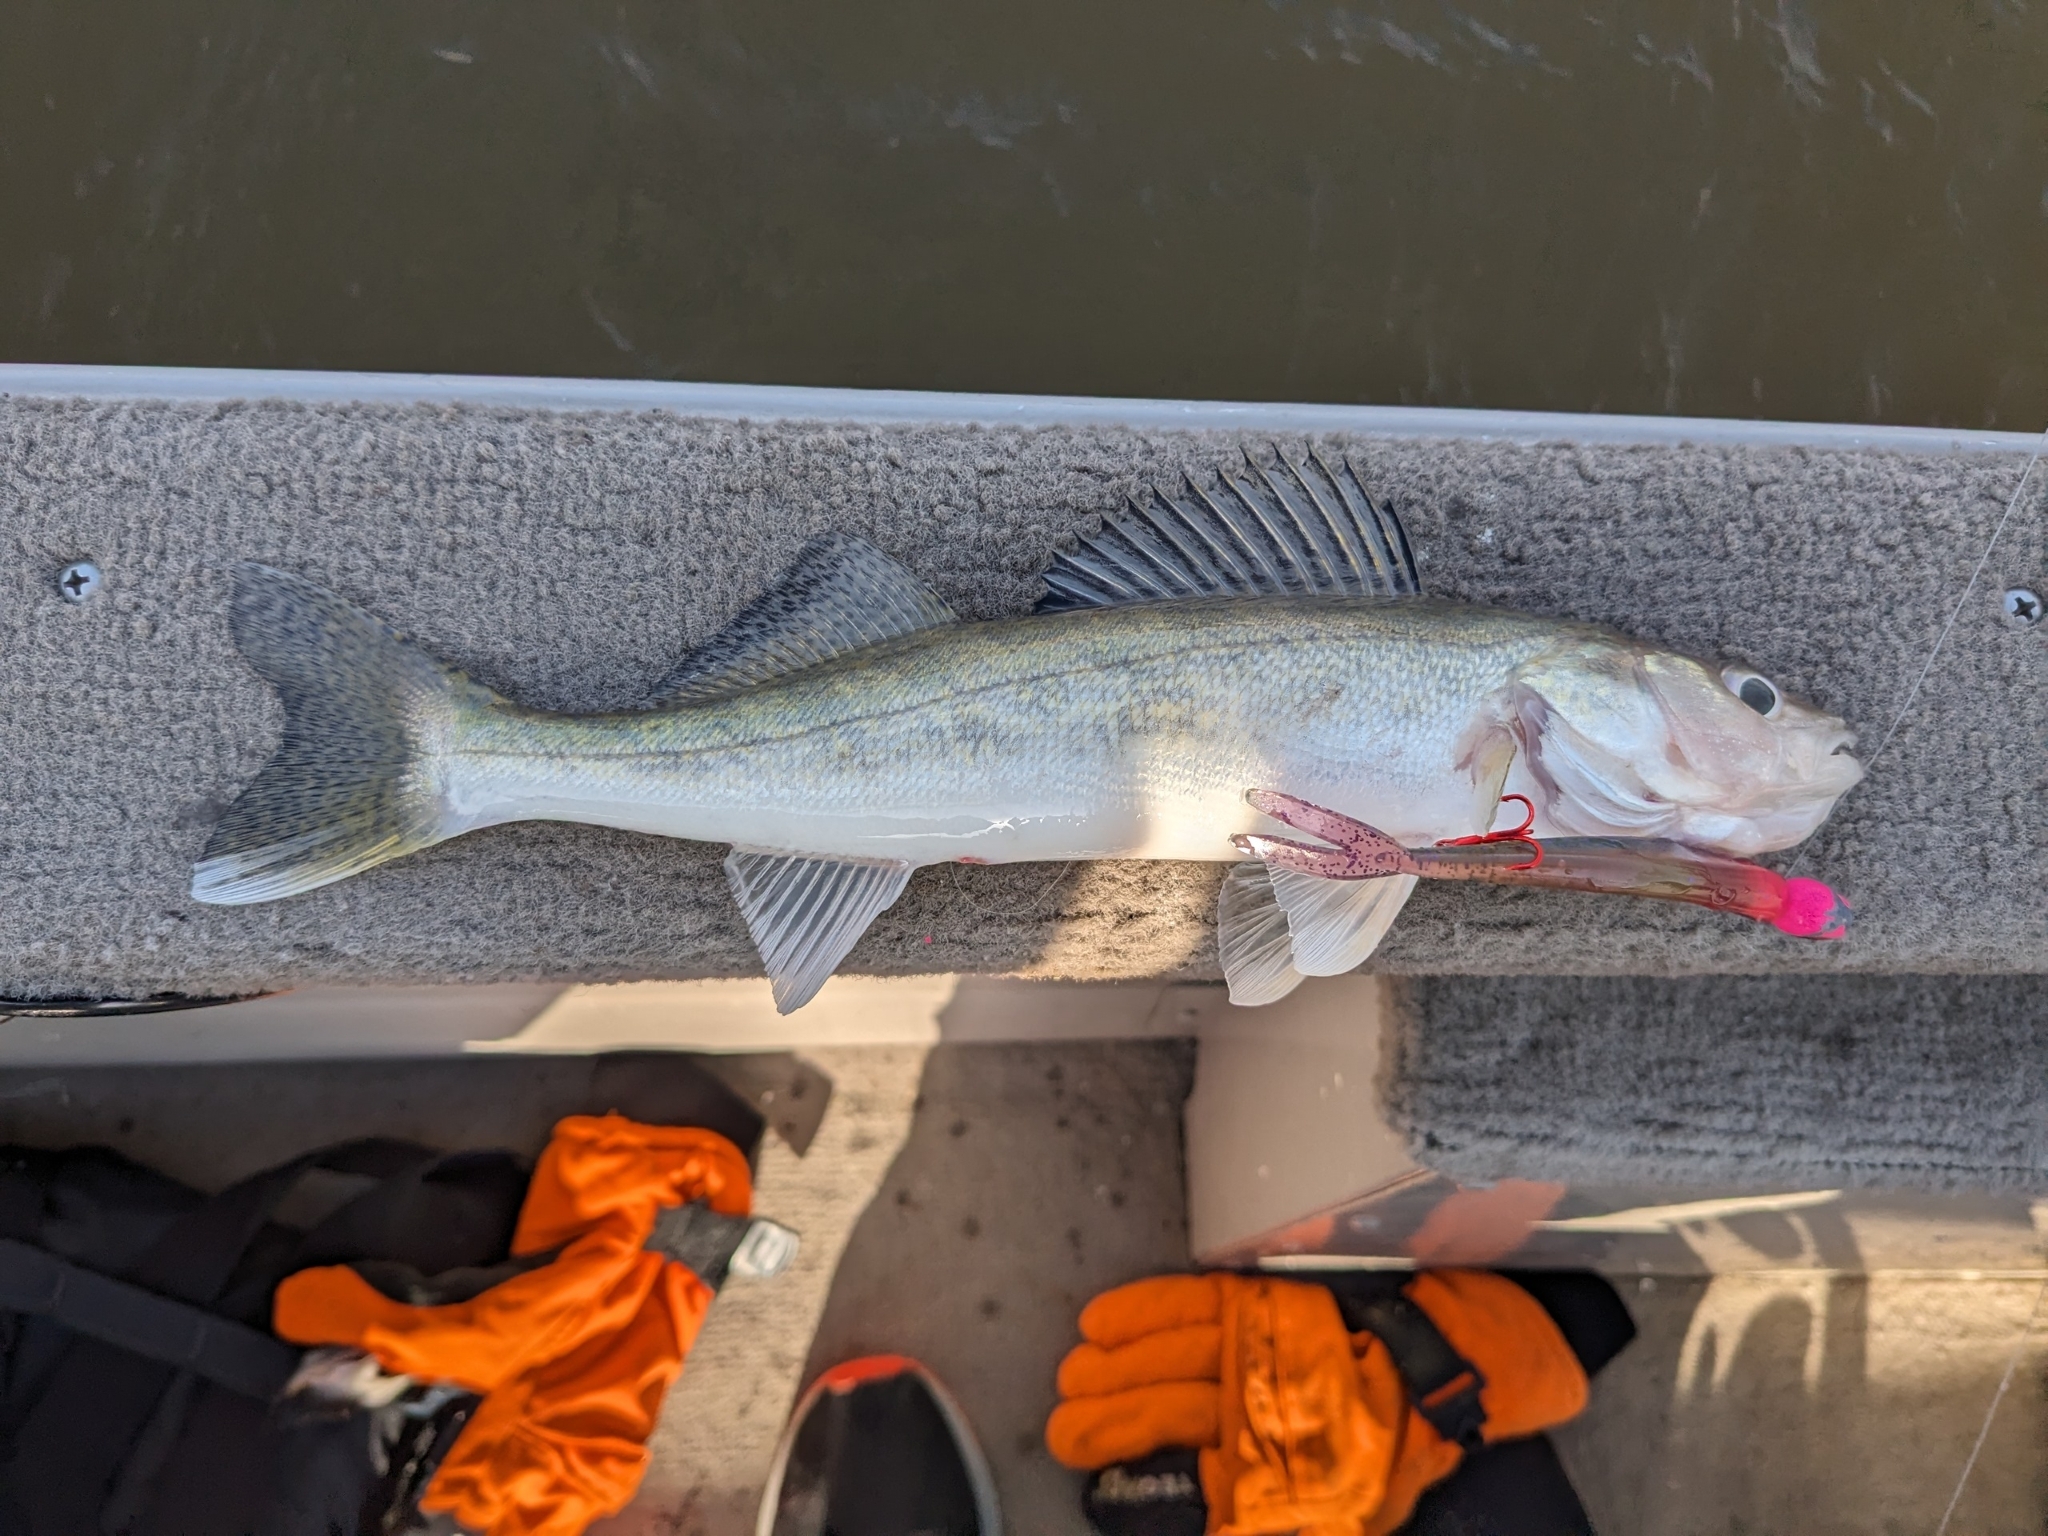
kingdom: Animalia
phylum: Chordata
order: Perciformes
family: Percidae
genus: Sander
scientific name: Sander vitreus
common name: Walleye
